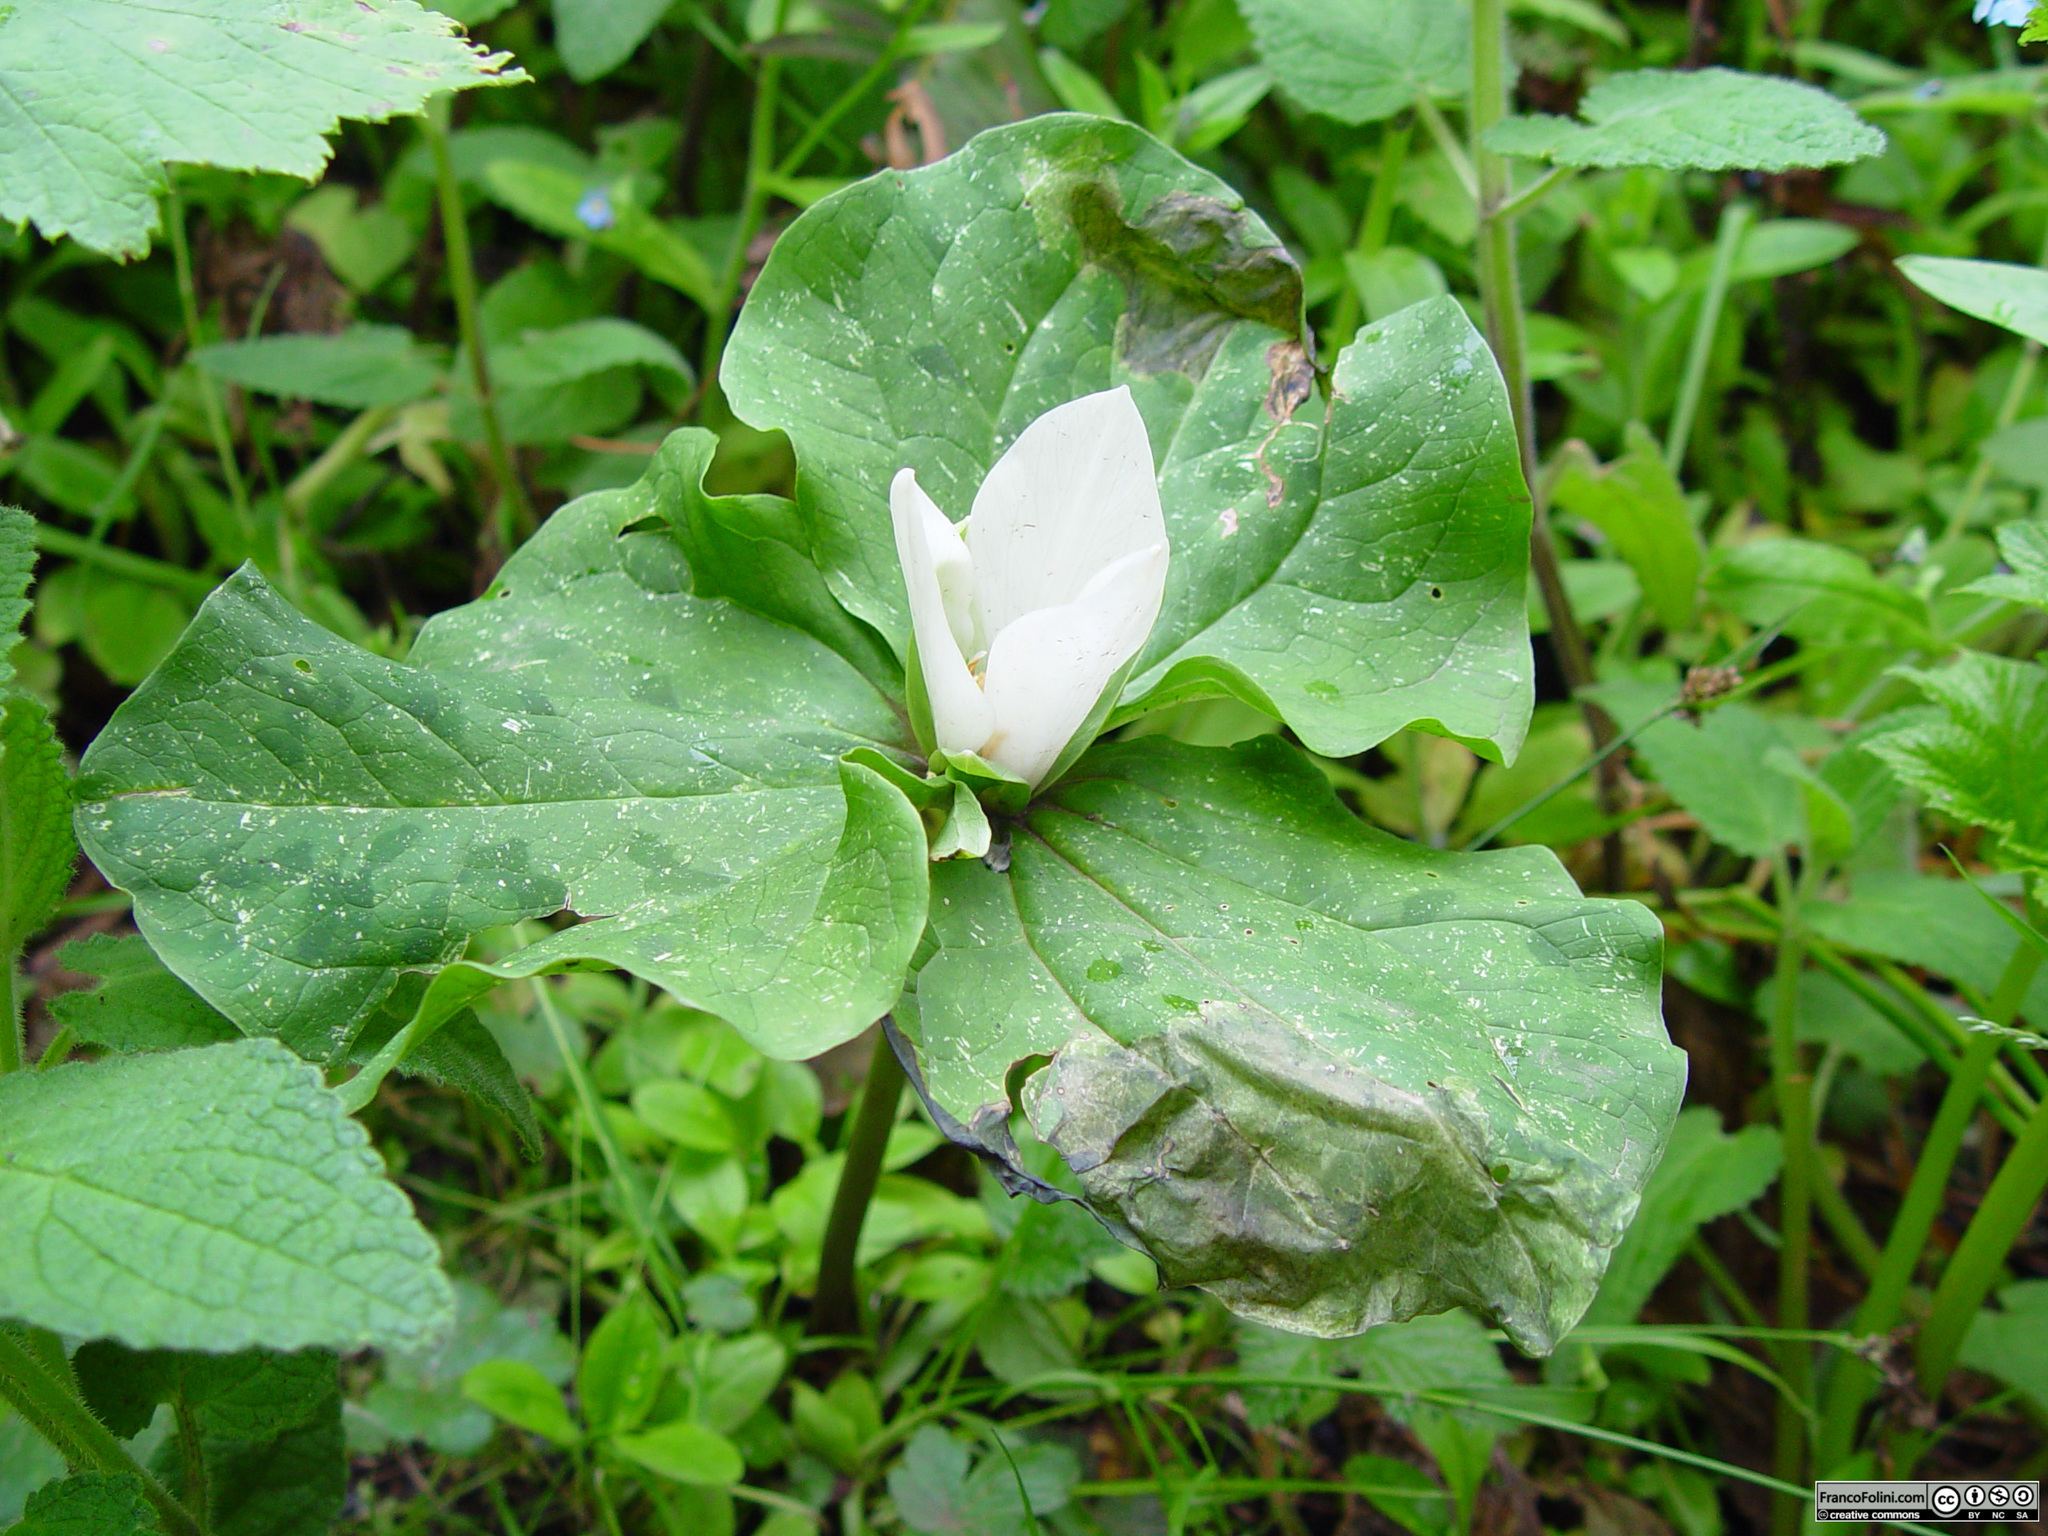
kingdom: Plantae
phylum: Tracheophyta
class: Liliopsida
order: Liliales
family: Melanthiaceae
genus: Trillium
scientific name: Trillium albidum
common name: Freeman's trillium
